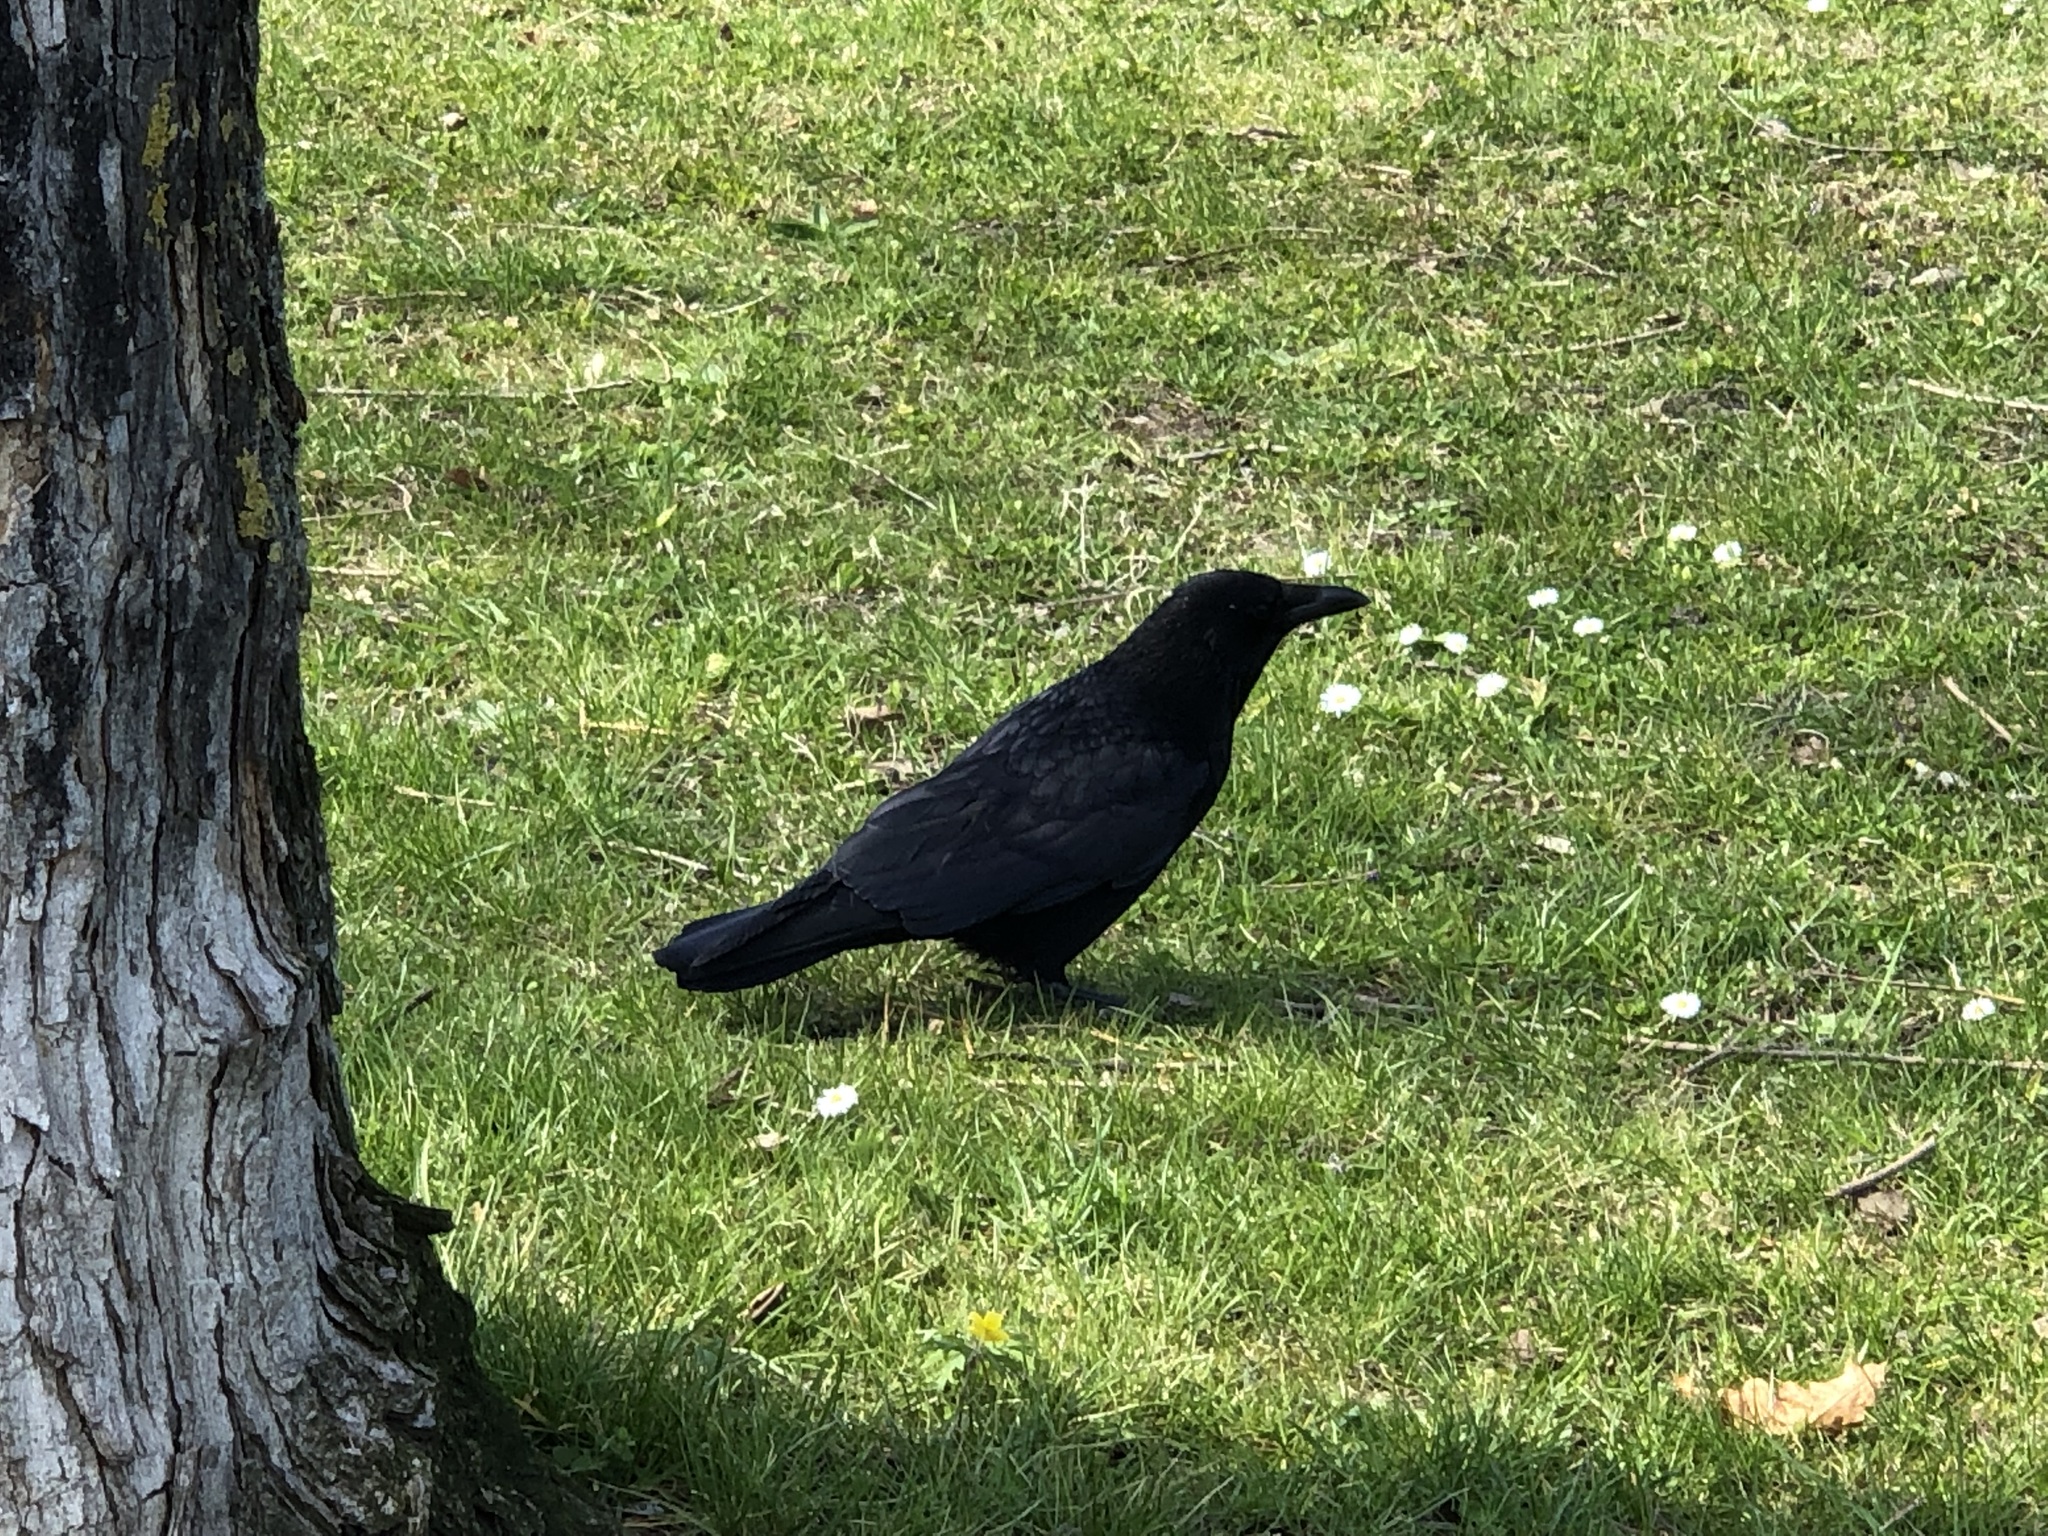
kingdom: Animalia
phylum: Chordata
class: Aves
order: Passeriformes
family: Corvidae
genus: Corvus
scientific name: Corvus corone
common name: Carrion crow
